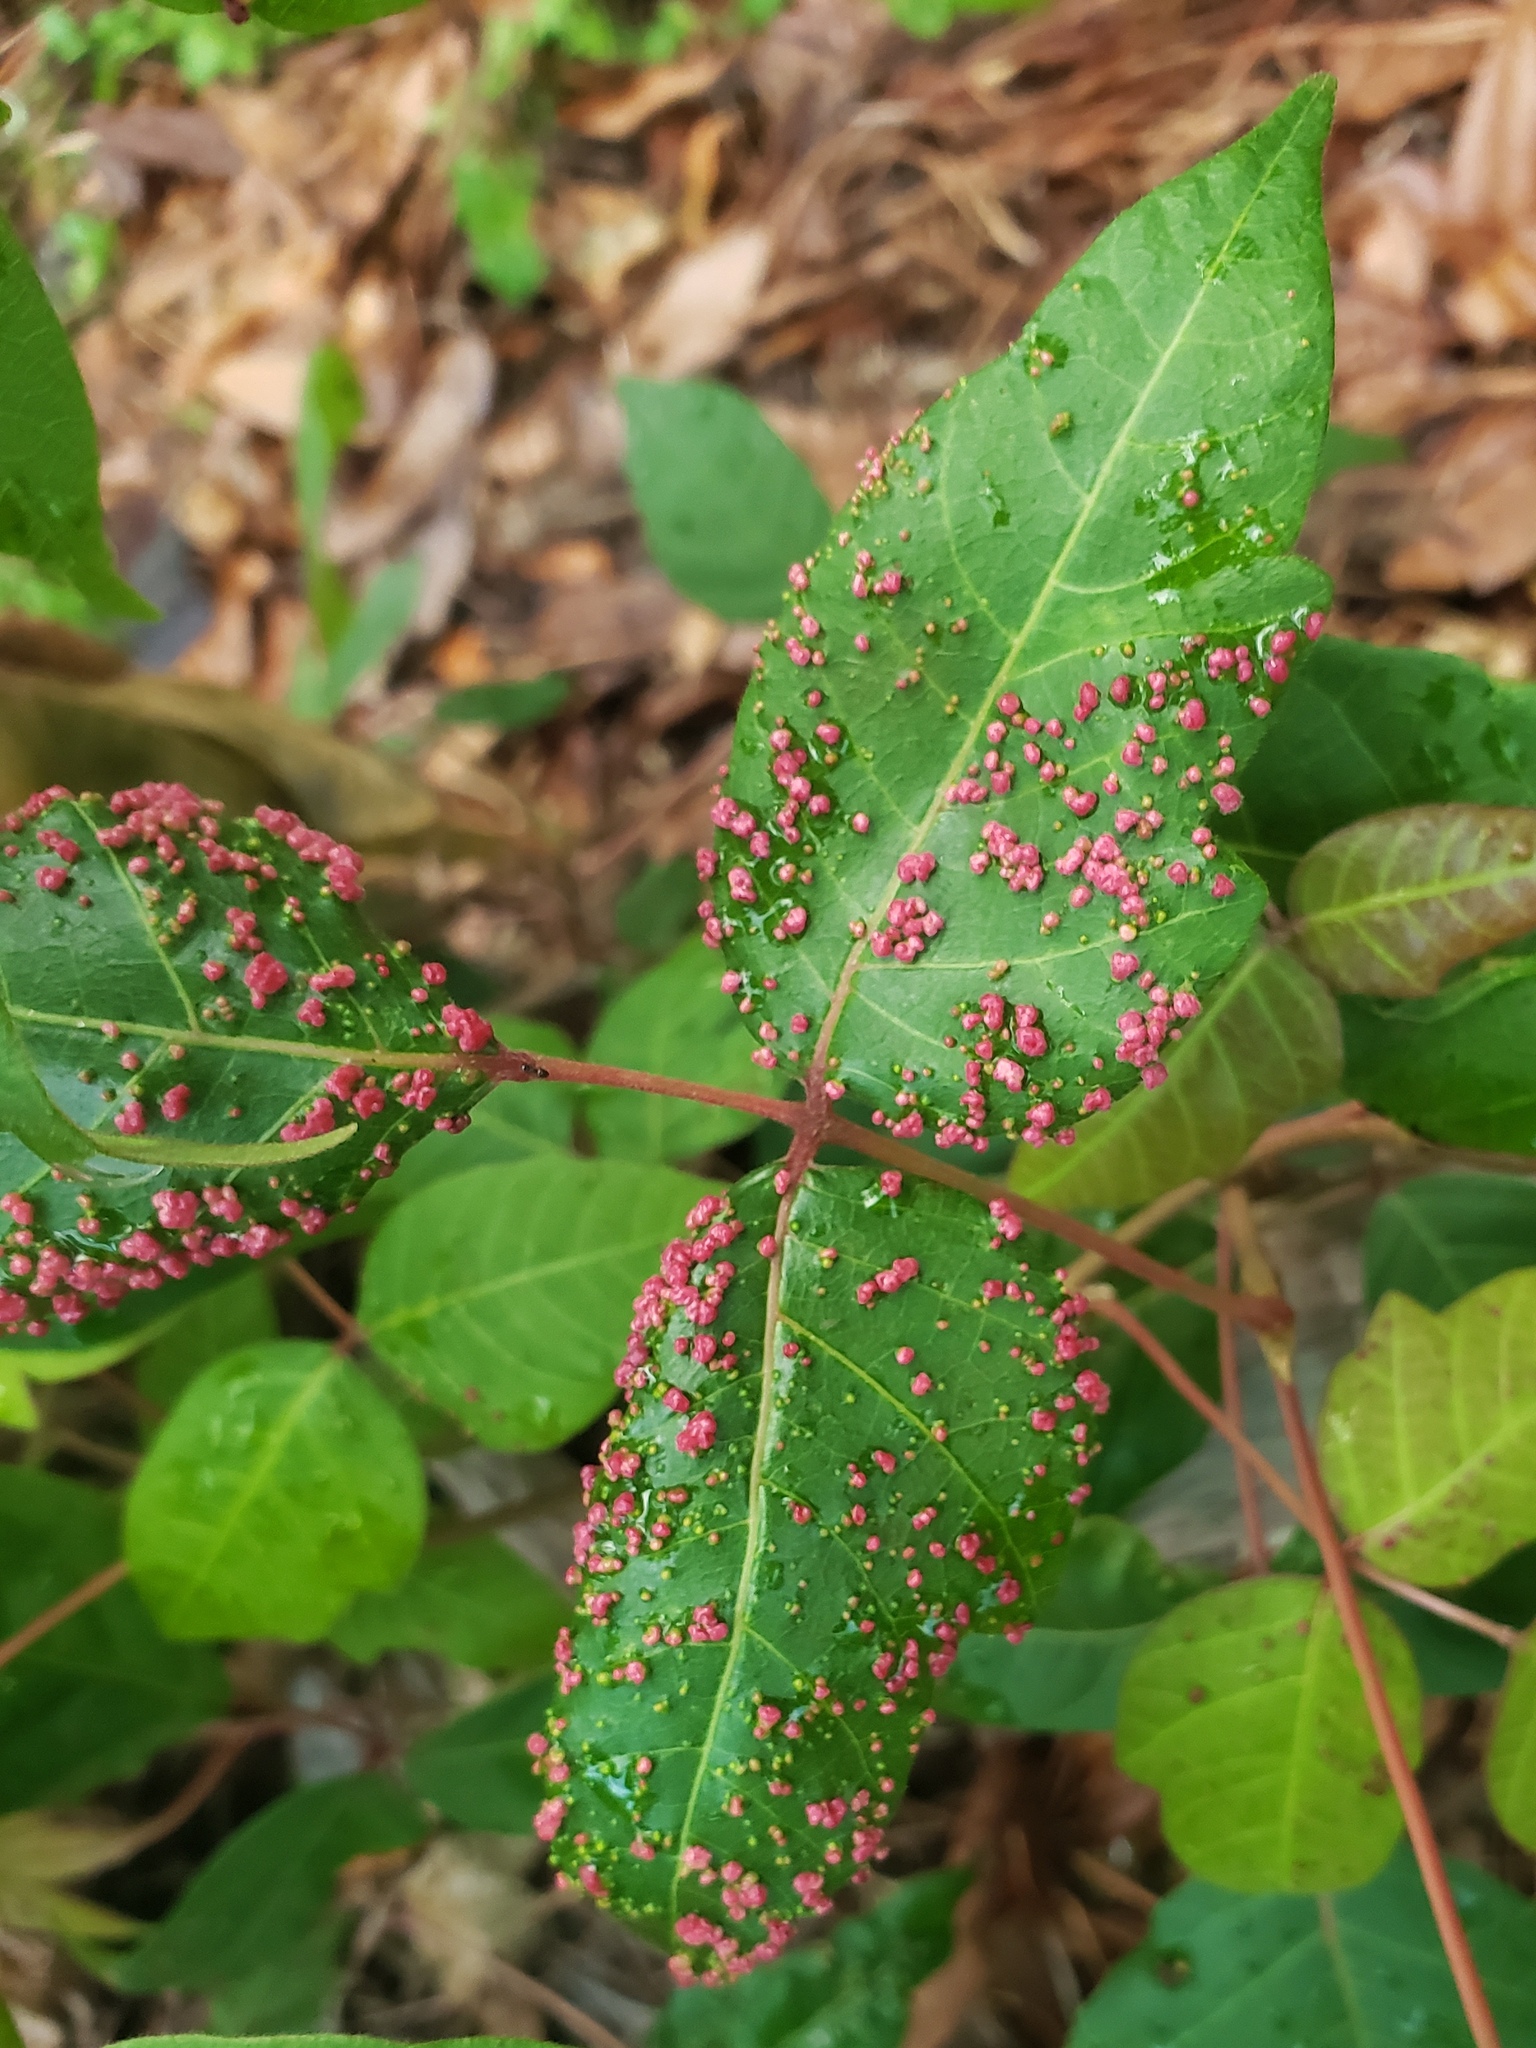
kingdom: Animalia
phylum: Arthropoda
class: Arachnida
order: Trombidiformes
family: Eriophyidae
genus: Aculops
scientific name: Aculops
